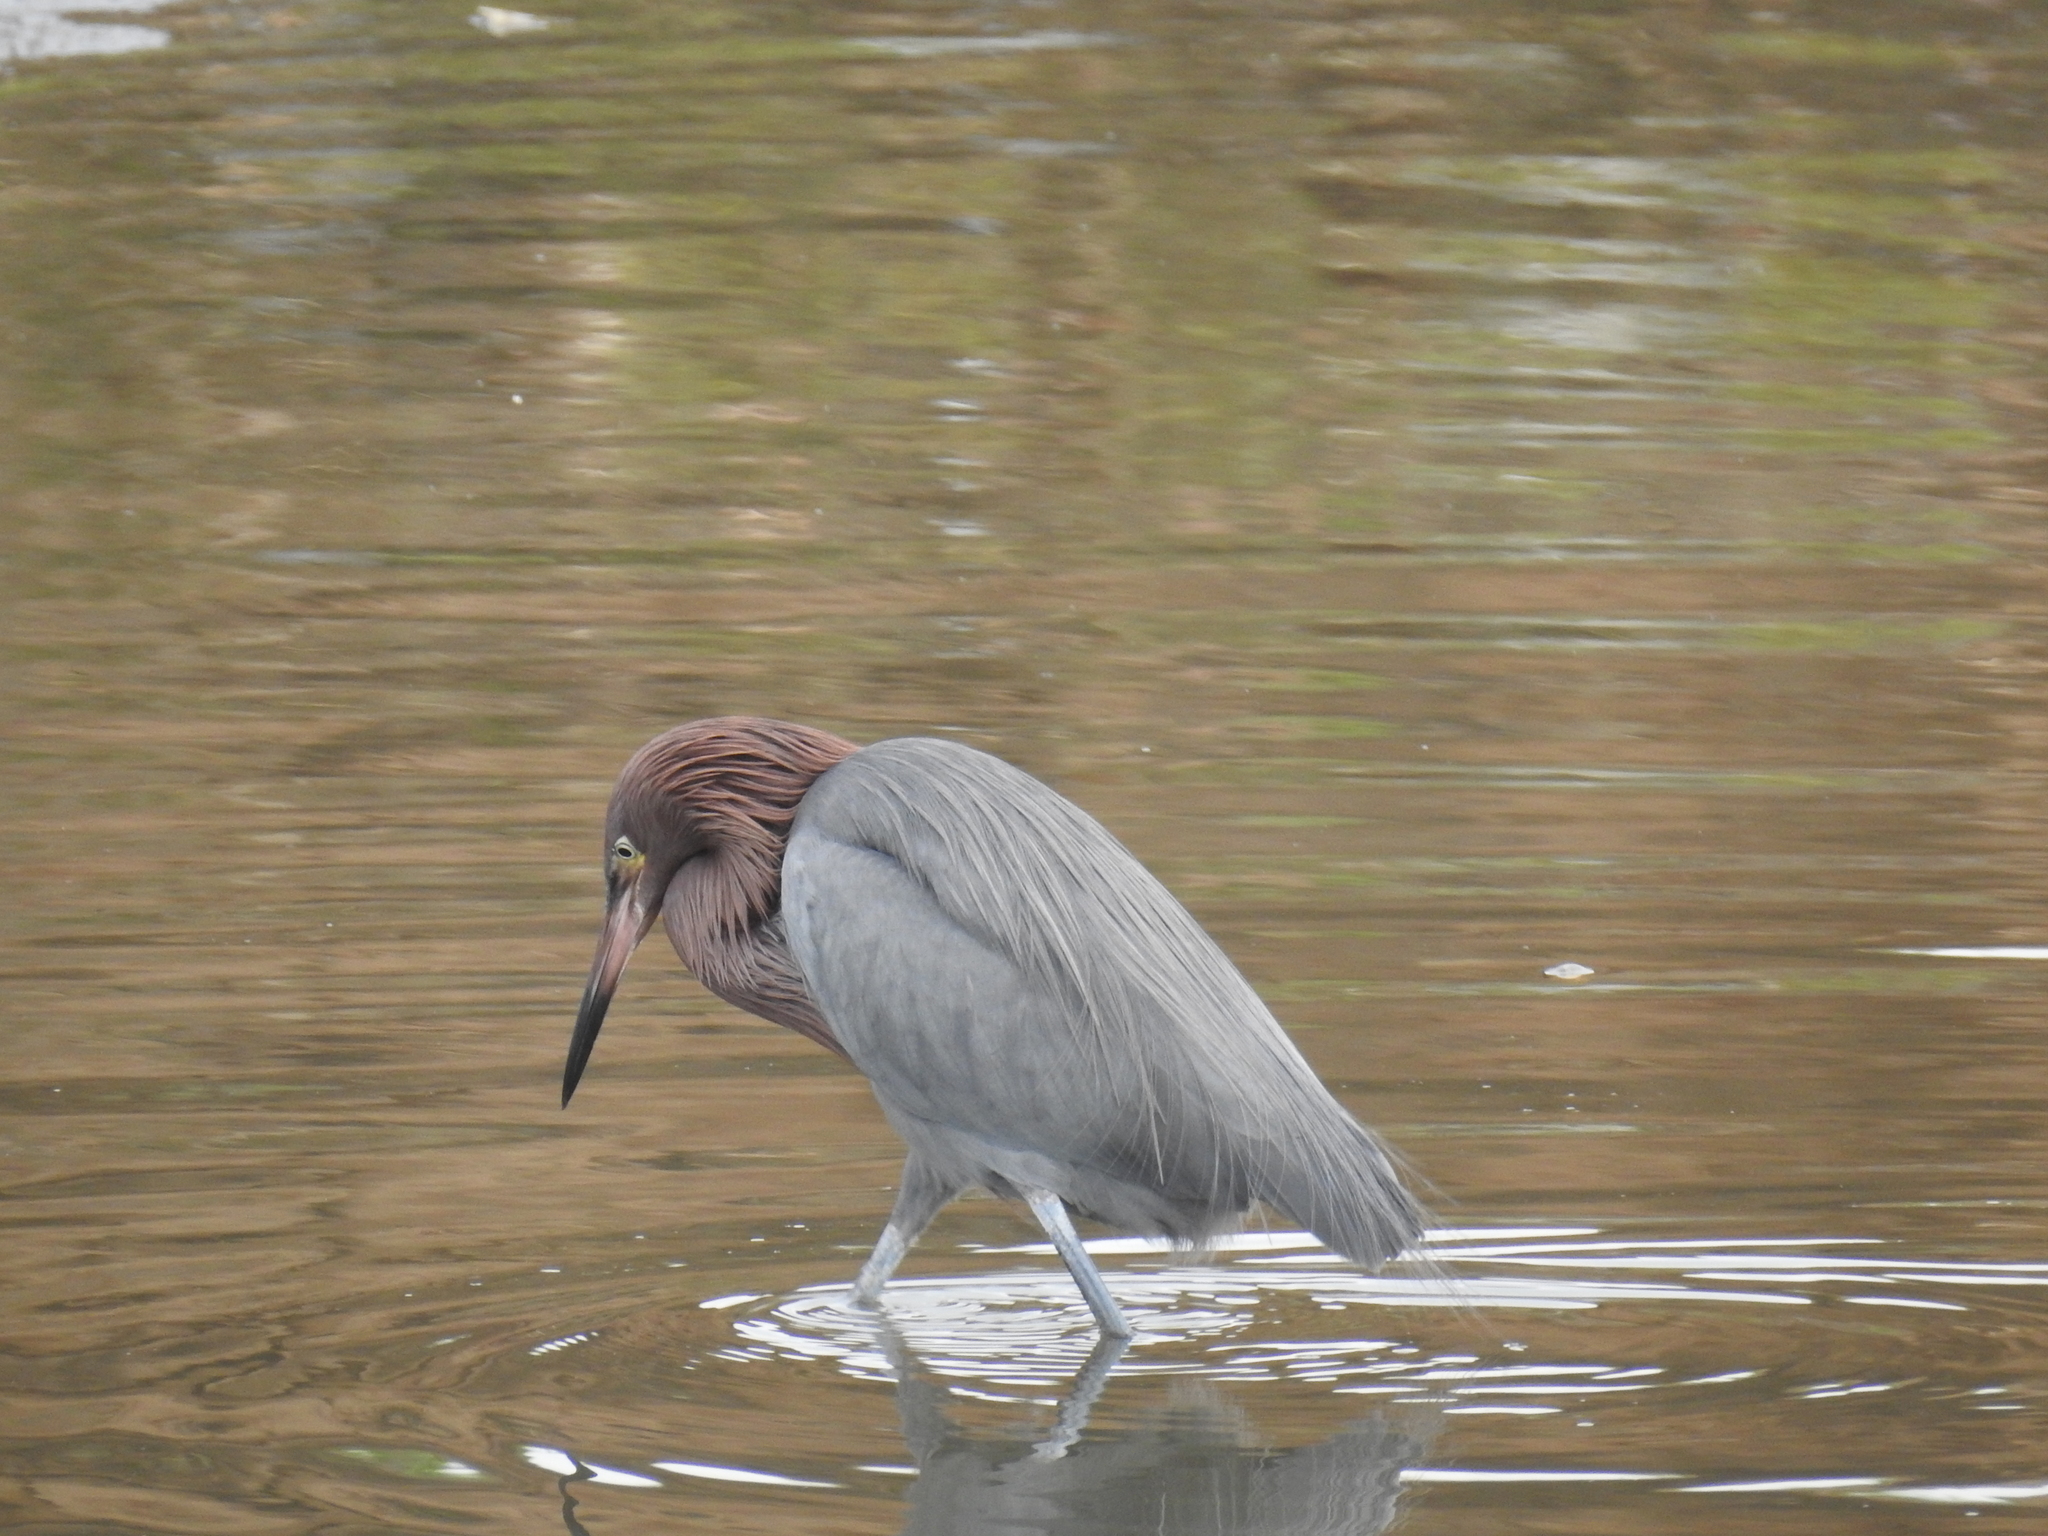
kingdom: Animalia
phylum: Chordata
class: Aves
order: Pelecaniformes
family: Ardeidae
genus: Egretta
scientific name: Egretta rufescens
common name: Reddish egret
